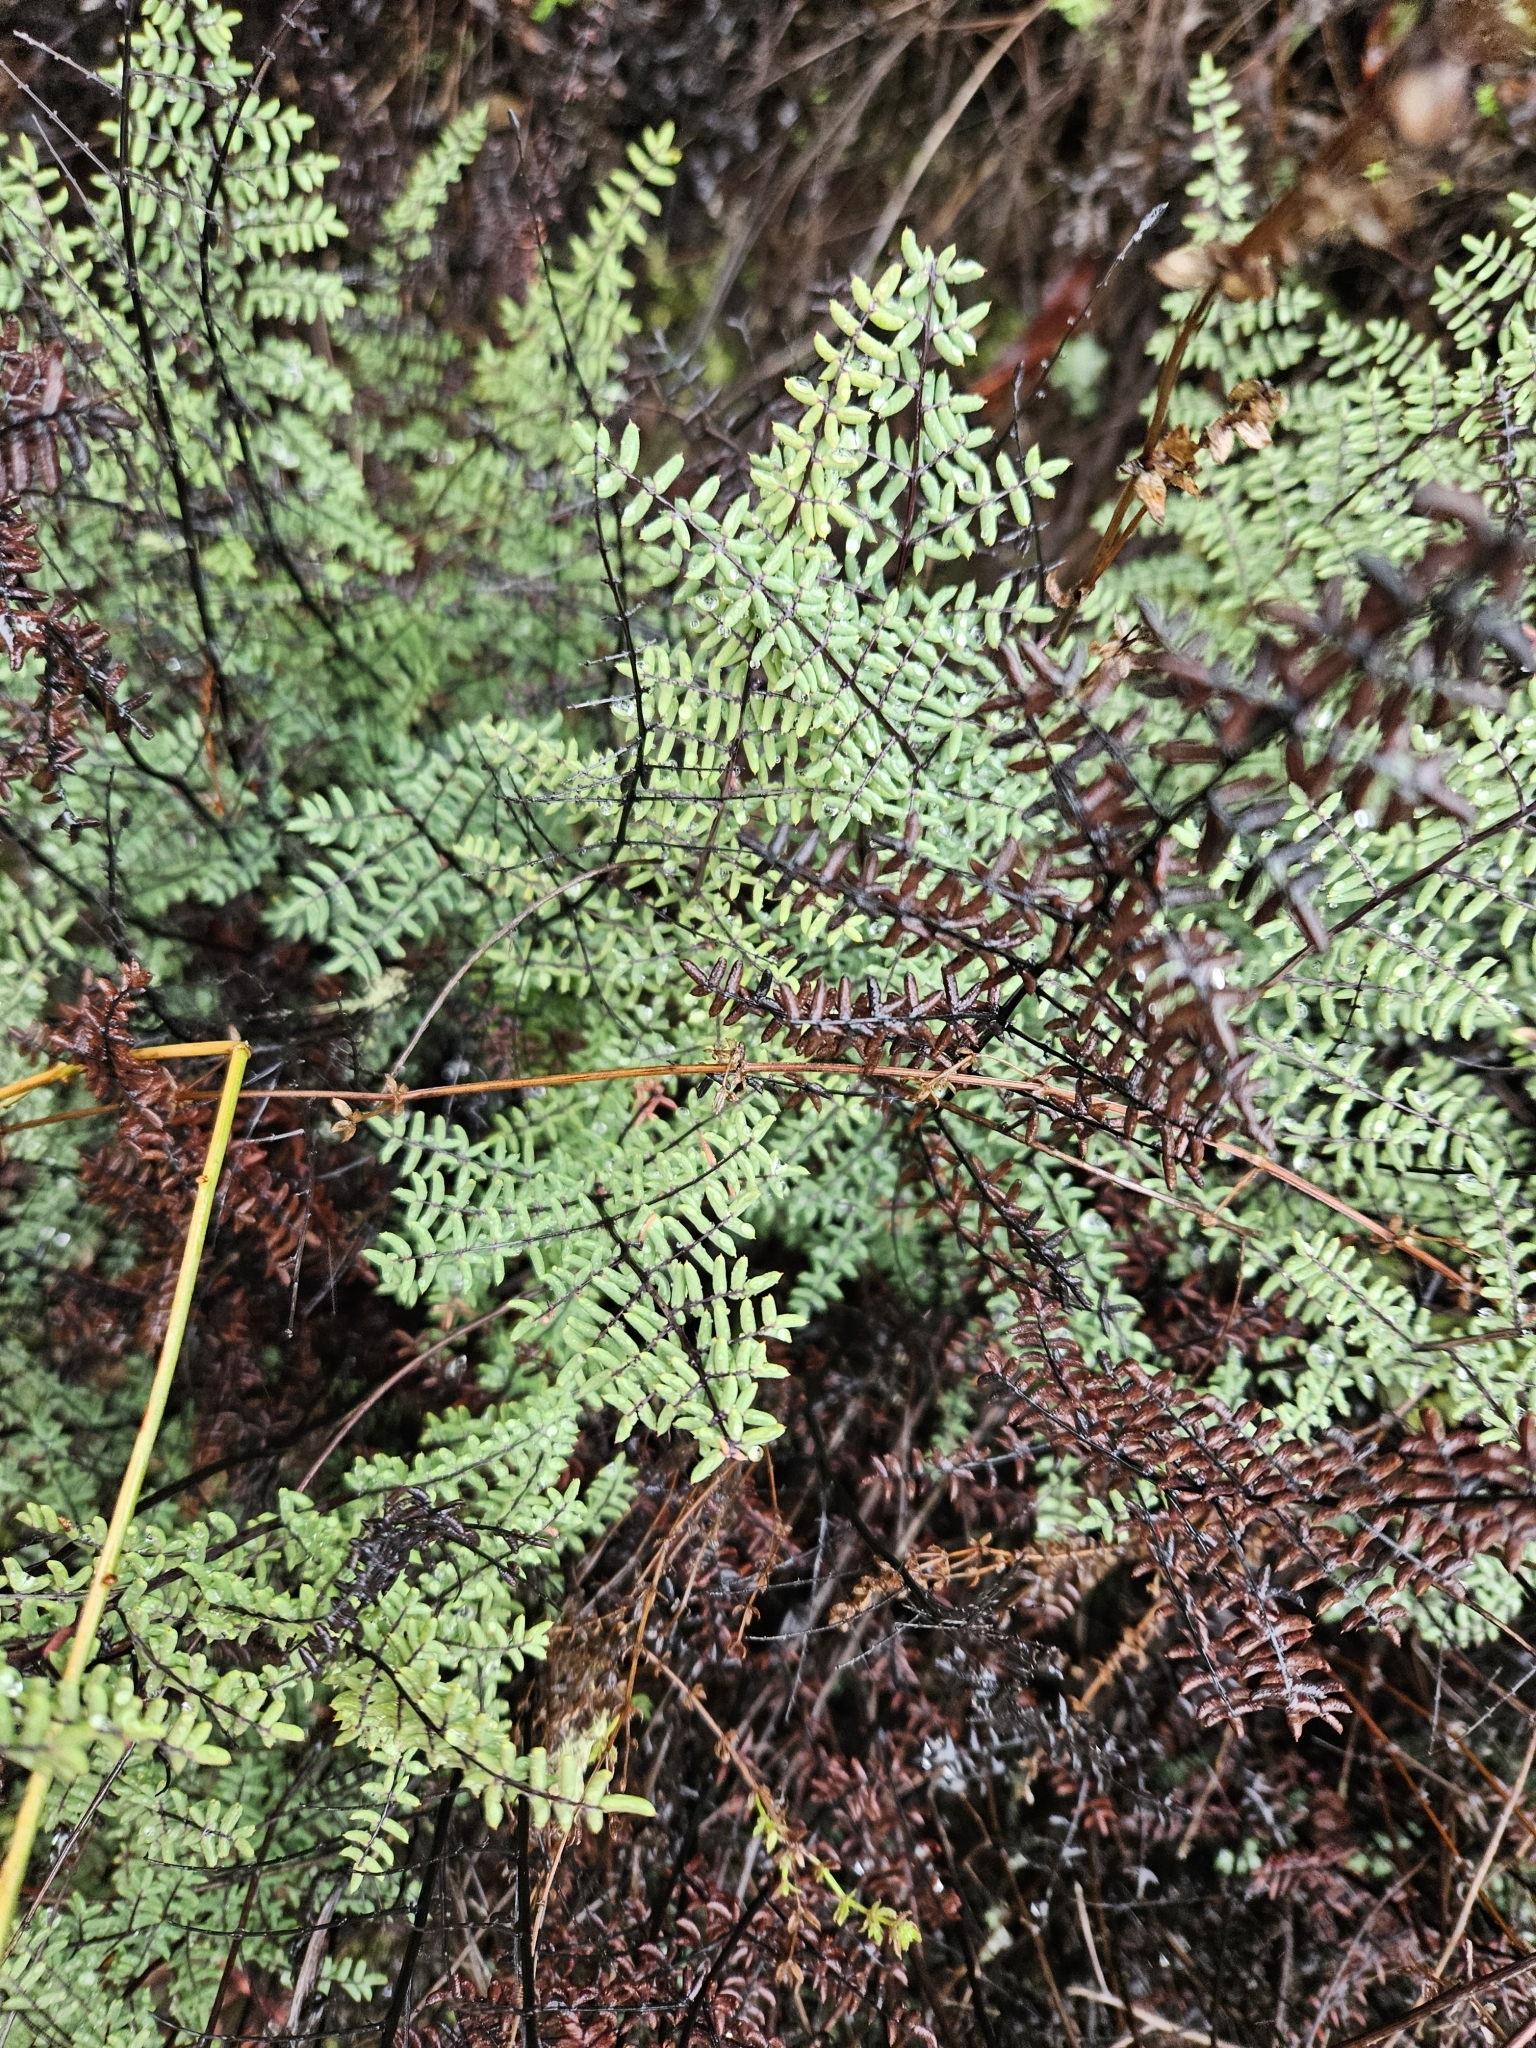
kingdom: Plantae
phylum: Tracheophyta
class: Polypodiopsida
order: Polypodiales
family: Pteridaceae
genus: Pellaea
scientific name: Pellaea mucronata
